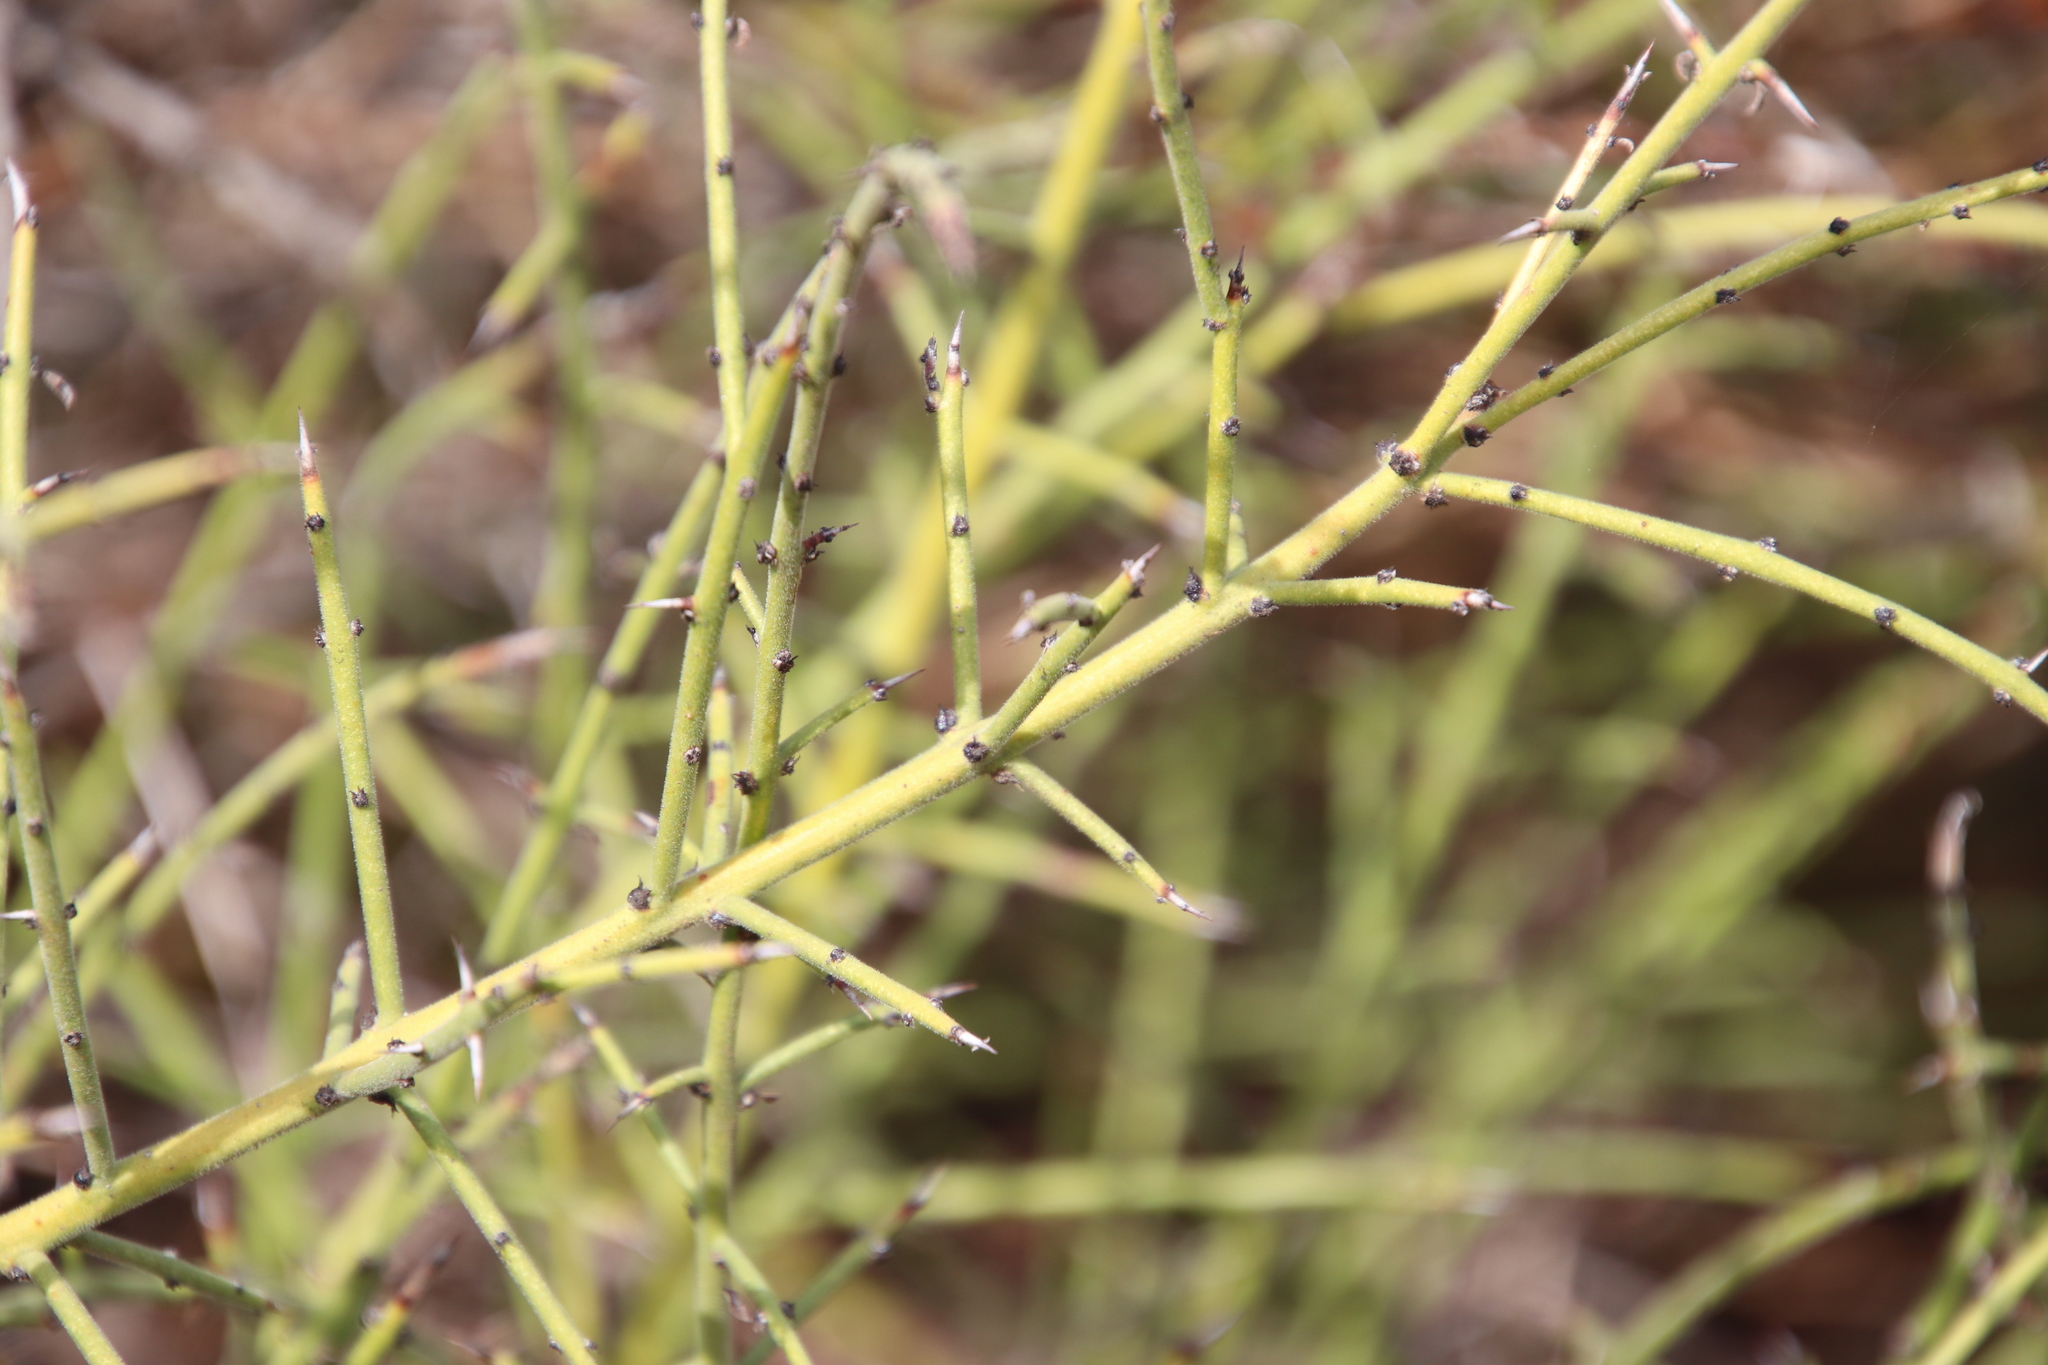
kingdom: Plantae
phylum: Tracheophyta
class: Magnoliopsida
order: Rosales
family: Rhamnaceae
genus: Adolphia
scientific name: Adolphia californica
